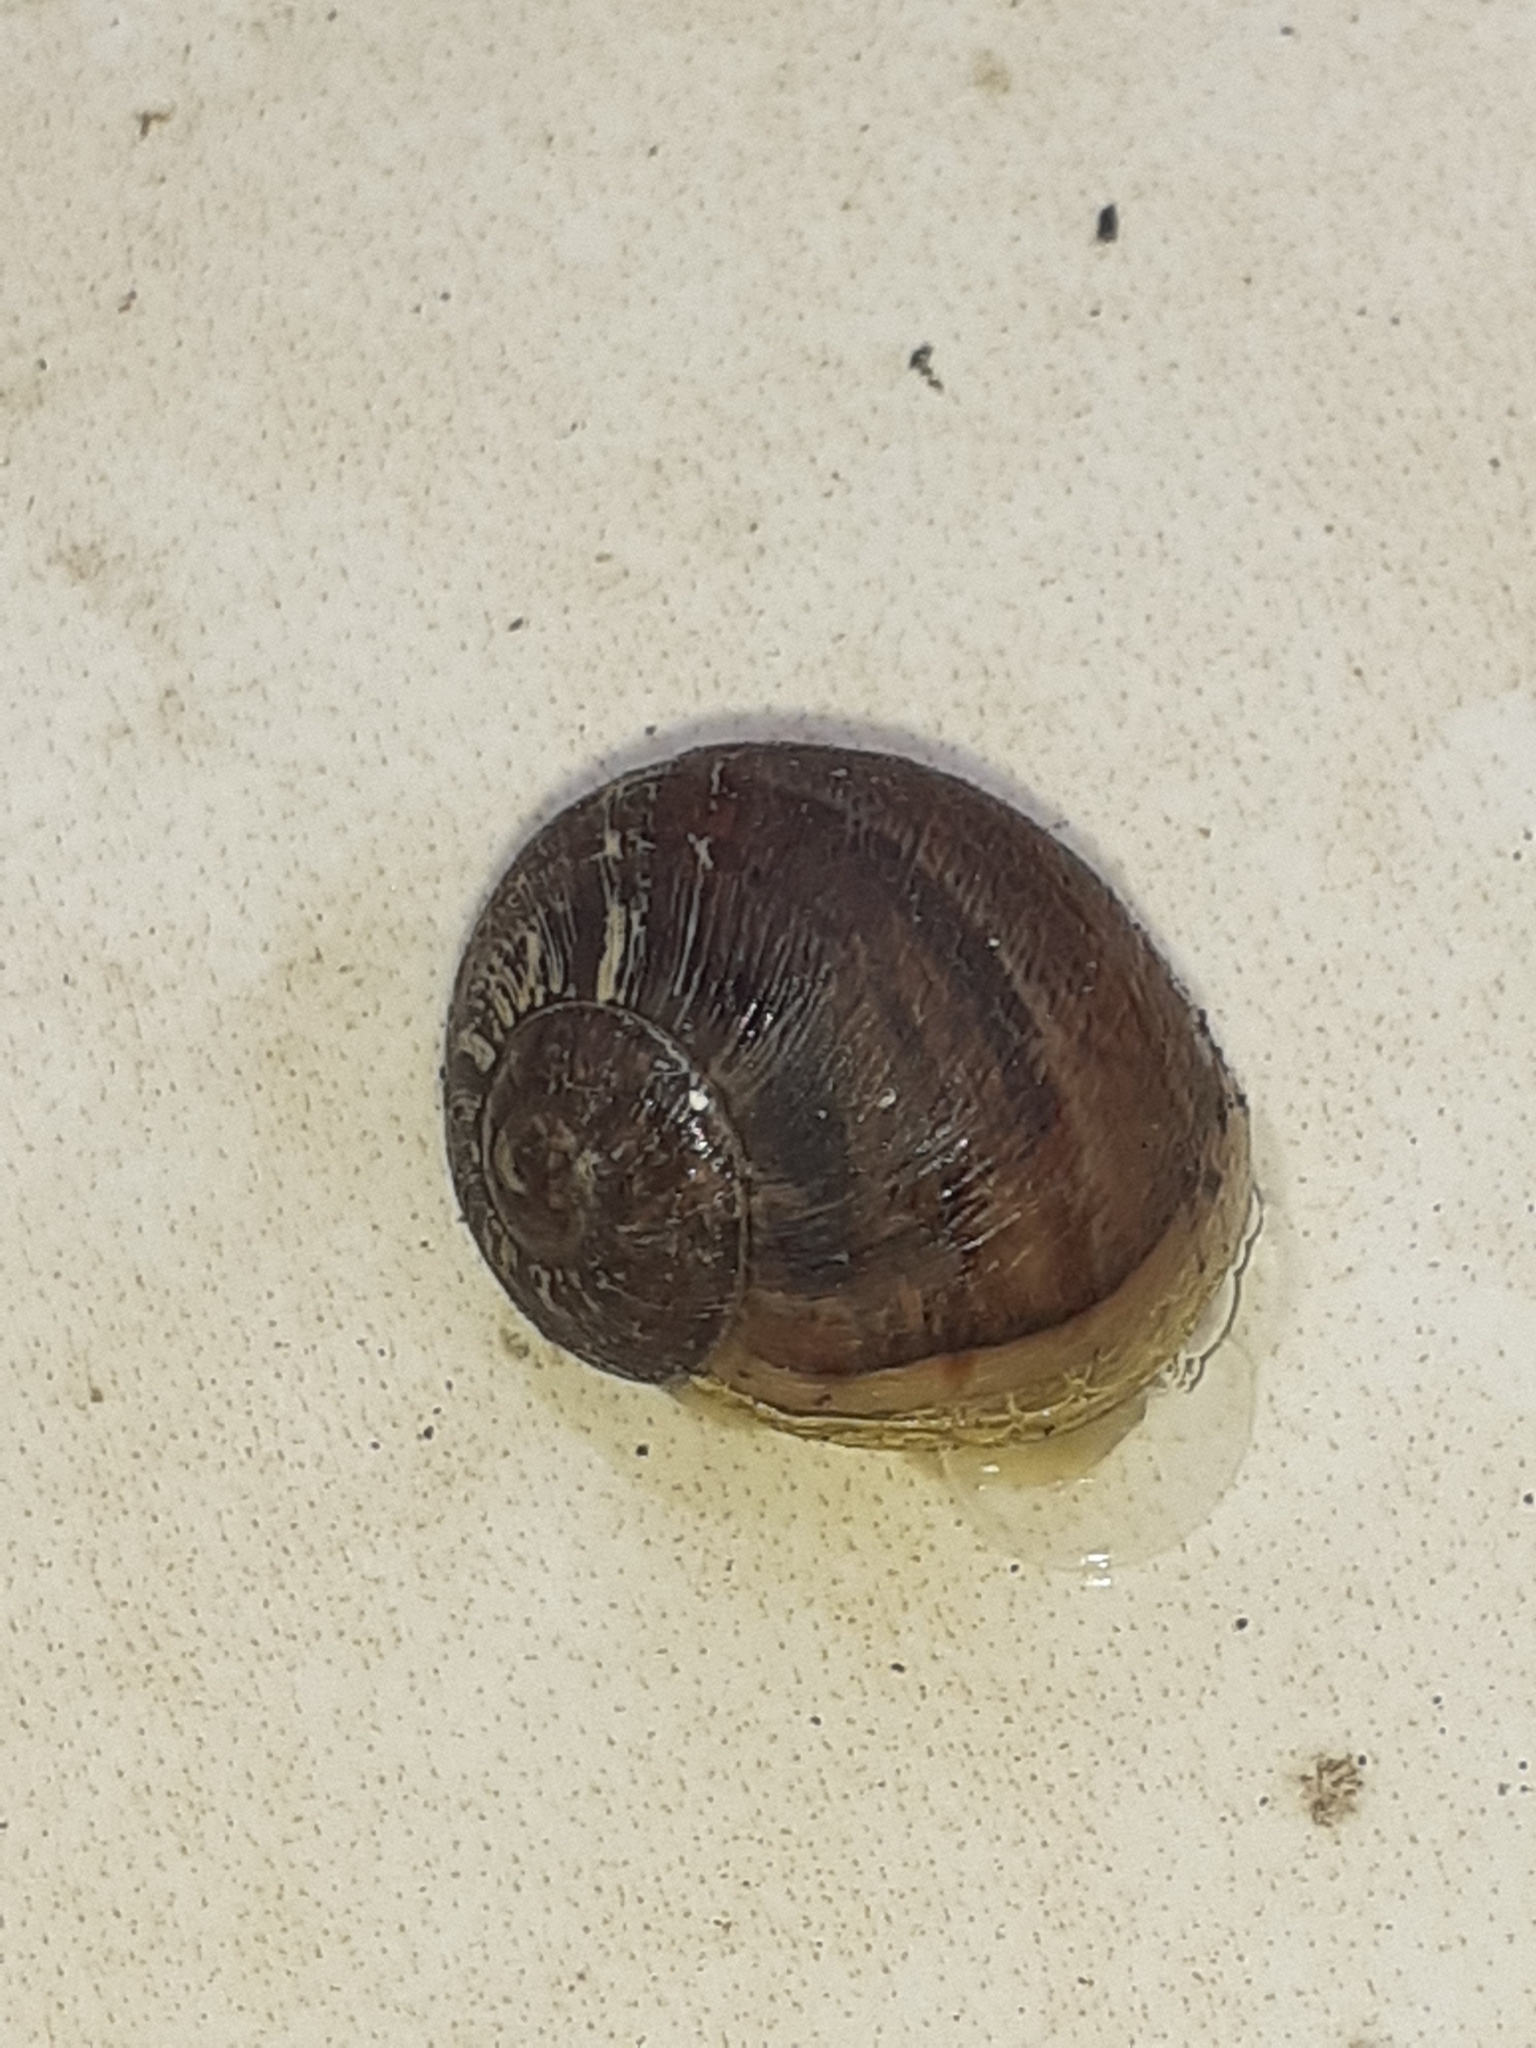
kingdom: Animalia
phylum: Mollusca
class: Gastropoda
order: Stylommatophora
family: Helicidae
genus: Cornu
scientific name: Cornu aspersum
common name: Brown garden snail
